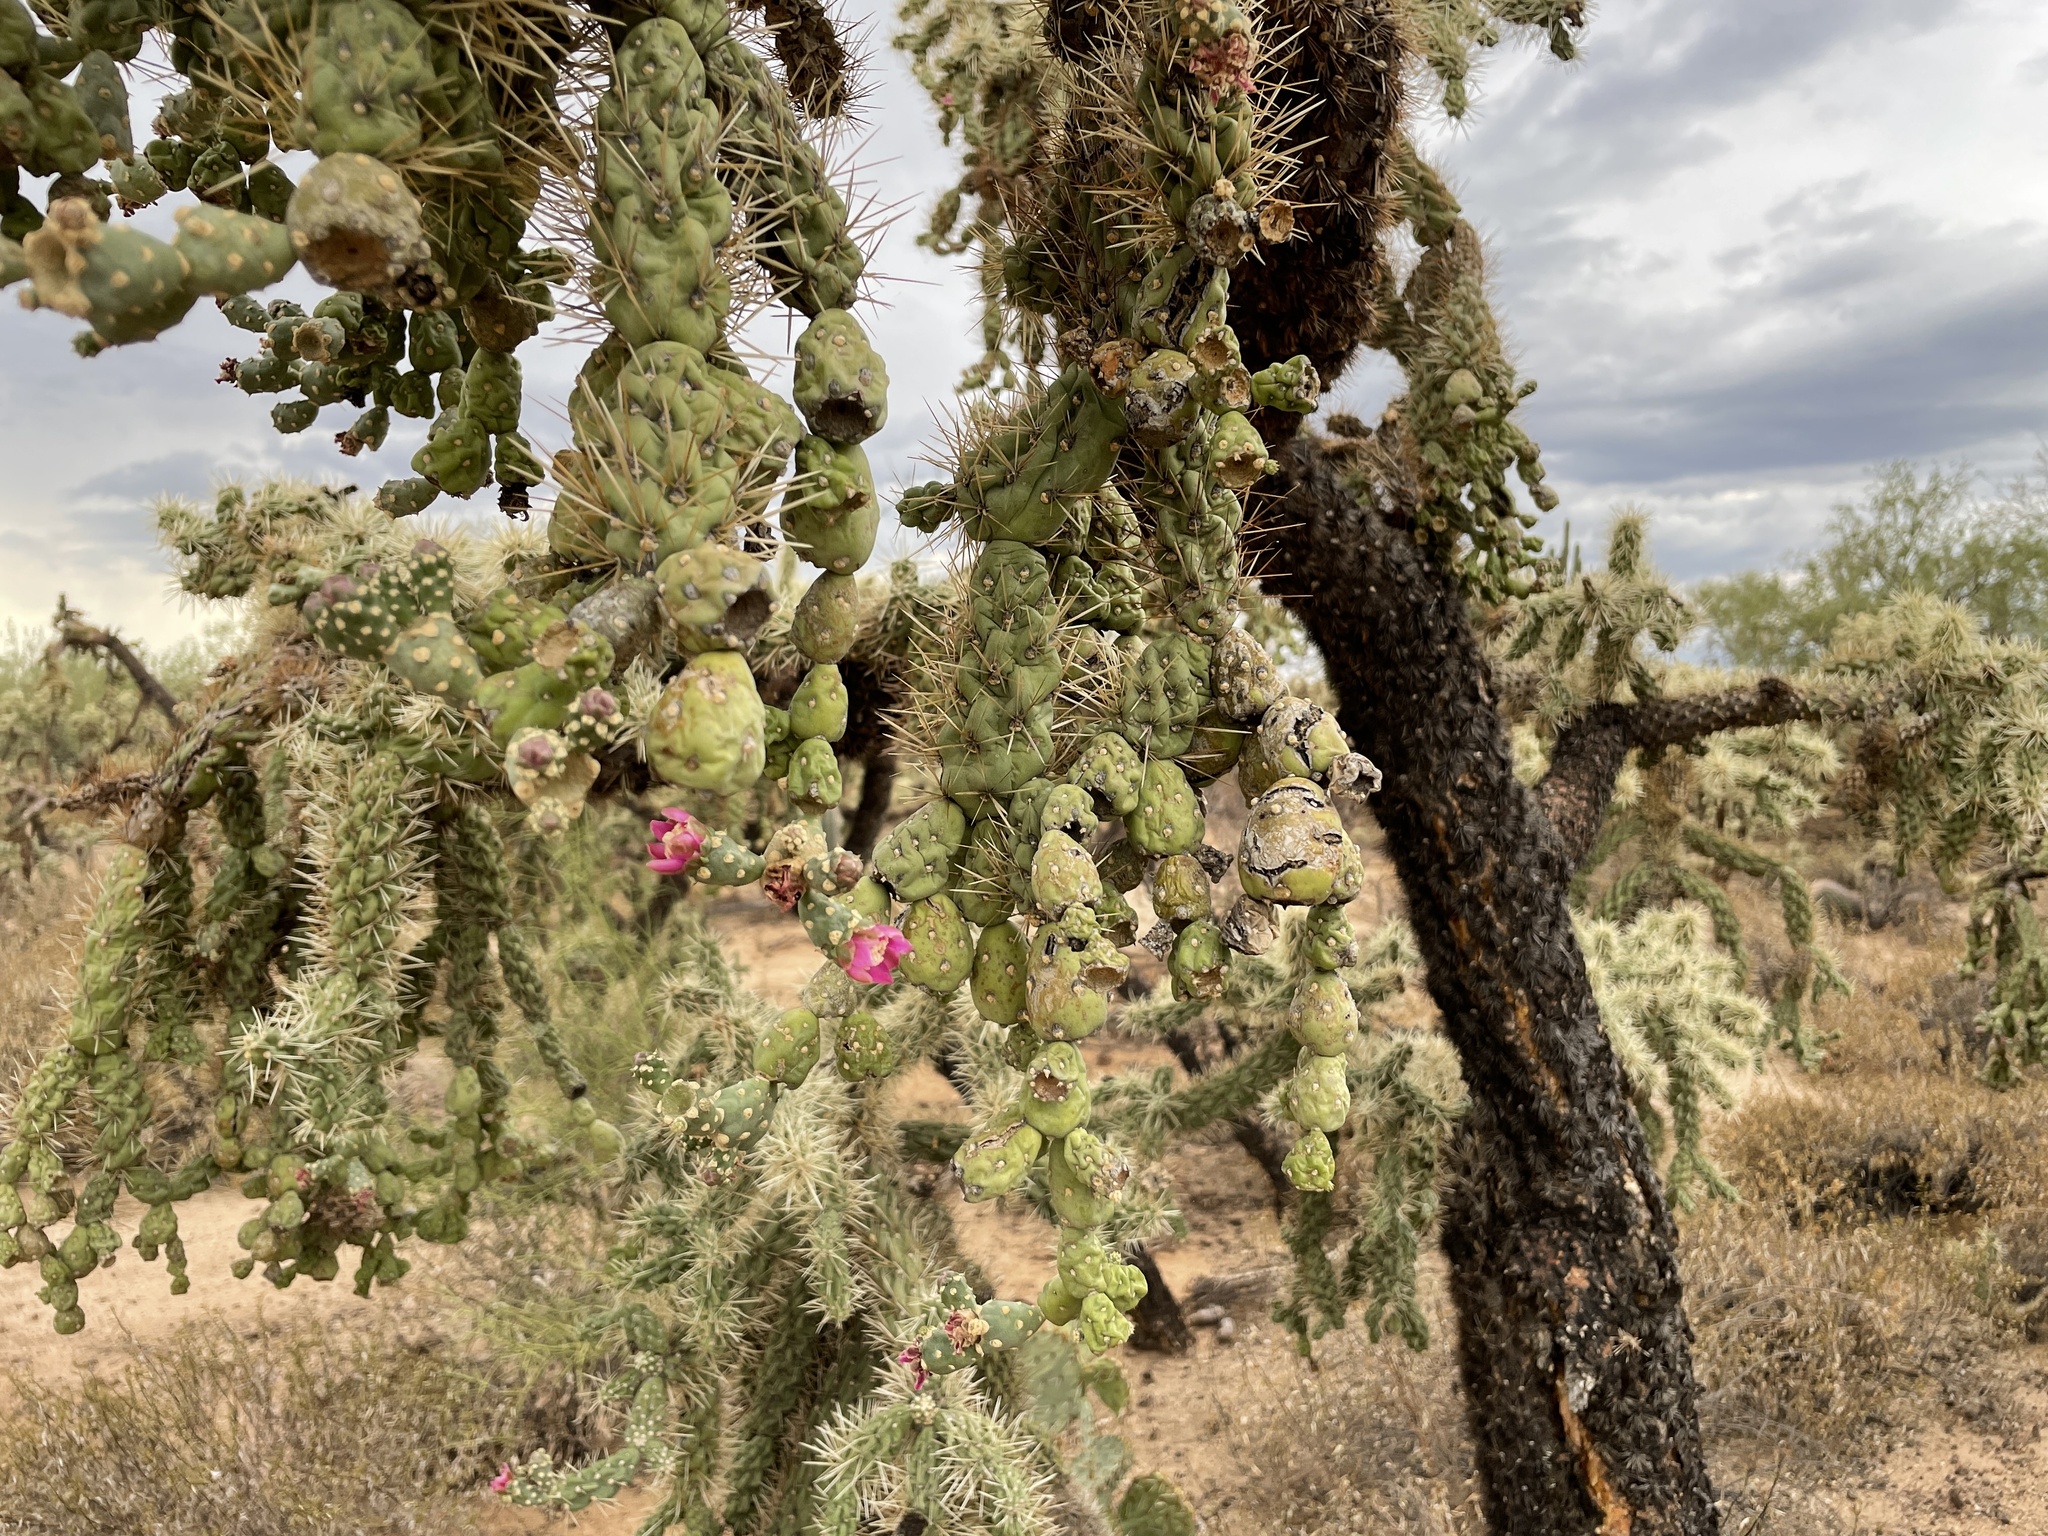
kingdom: Plantae
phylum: Tracheophyta
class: Magnoliopsida
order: Caryophyllales
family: Cactaceae
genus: Cylindropuntia
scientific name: Cylindropuntia fulgida
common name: Jumping cholla
